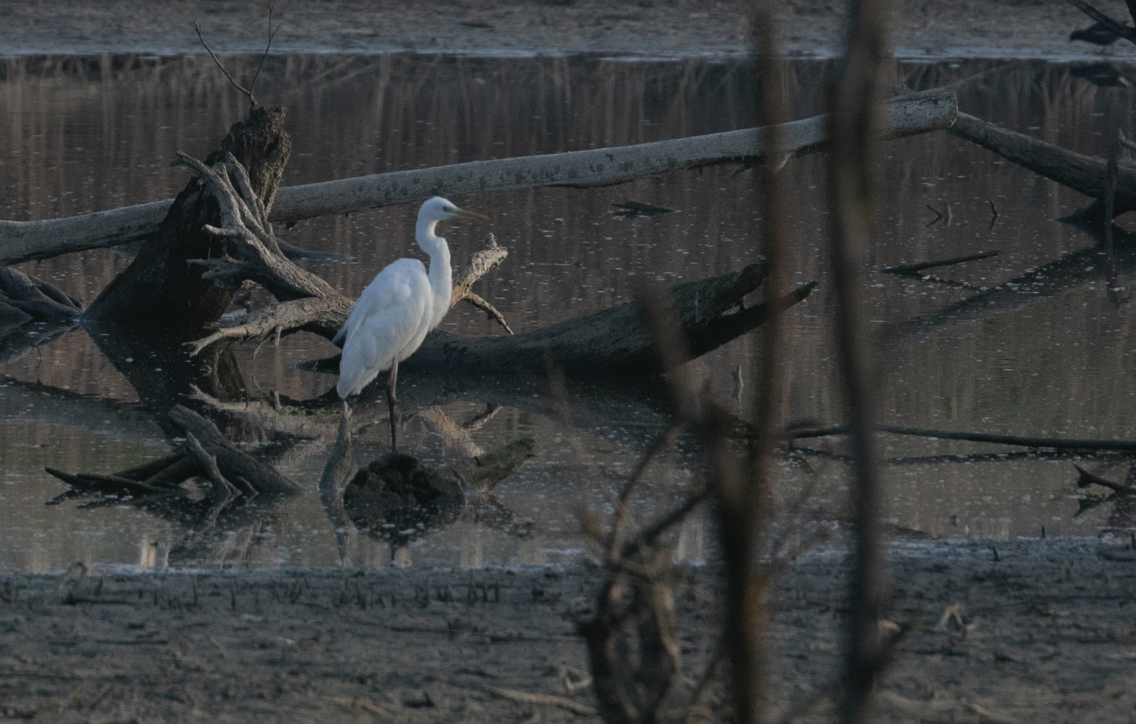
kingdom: Animalia
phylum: Chordata
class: Aves
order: Pelecaniformes
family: Ardeidae
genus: Ardea
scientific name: Ardea alba
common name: Great egret
